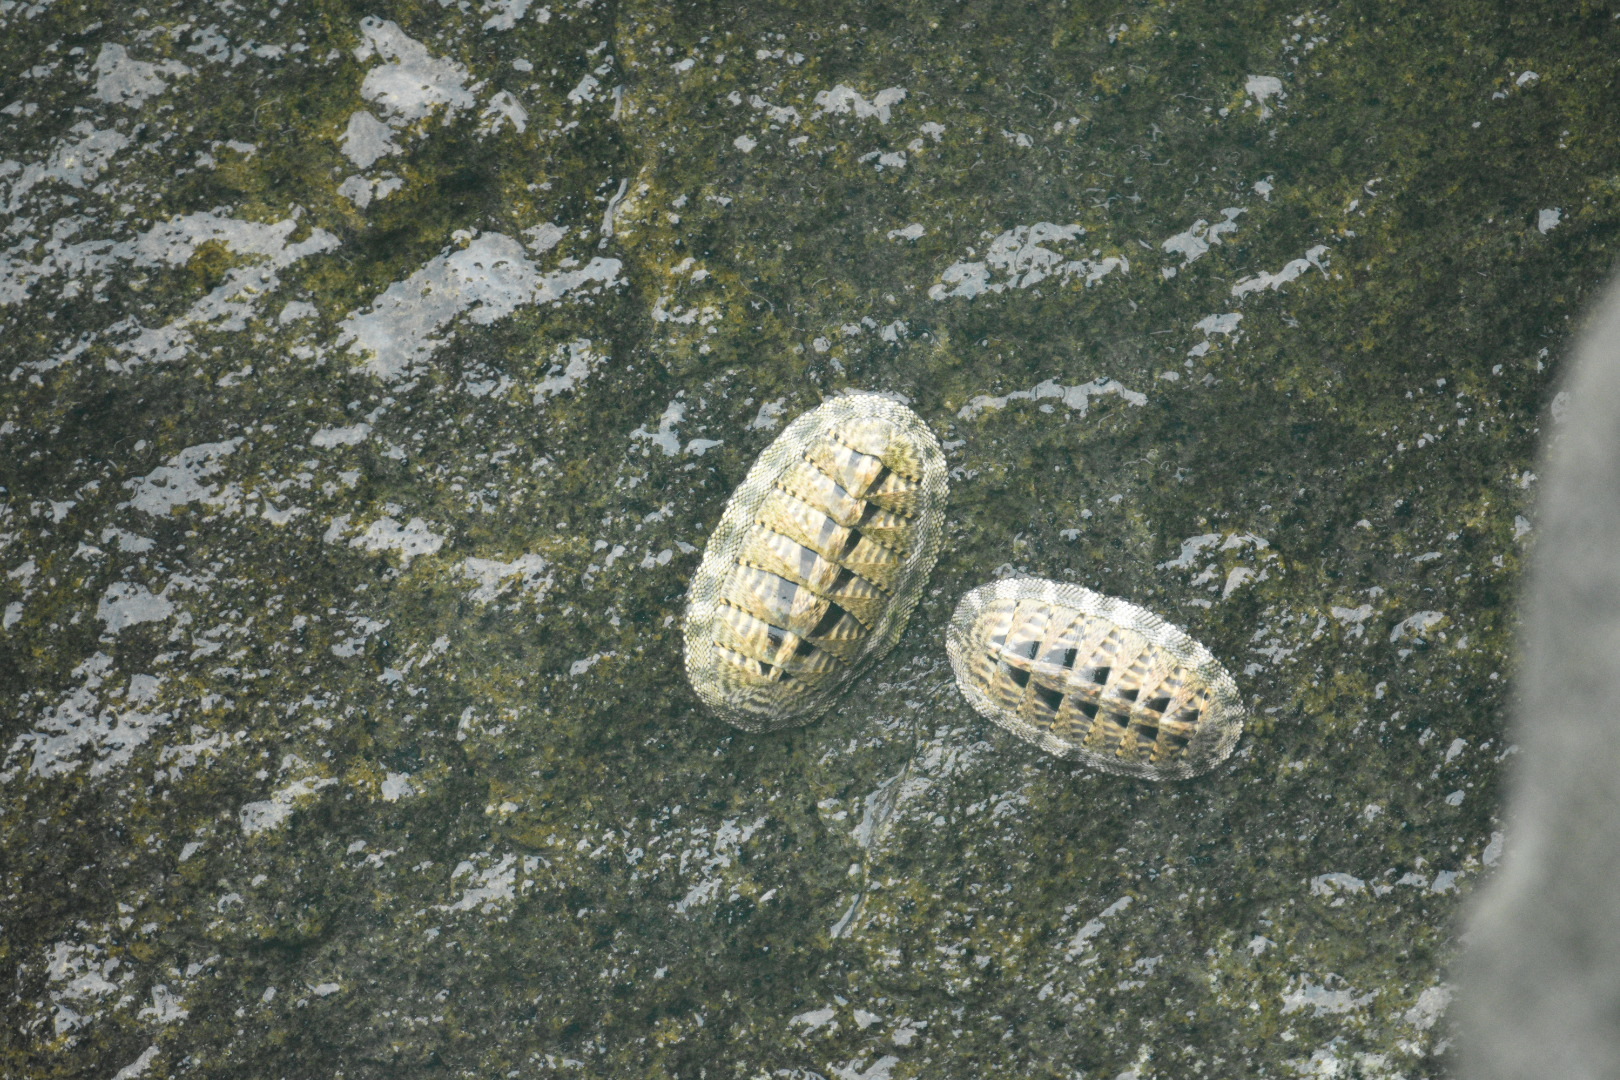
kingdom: Animalia
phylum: Mollusca
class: Polyplacophora
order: Chitonida
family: Chitonidae
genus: Chiton
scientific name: Chiton squamosus
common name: Squamose chiton
